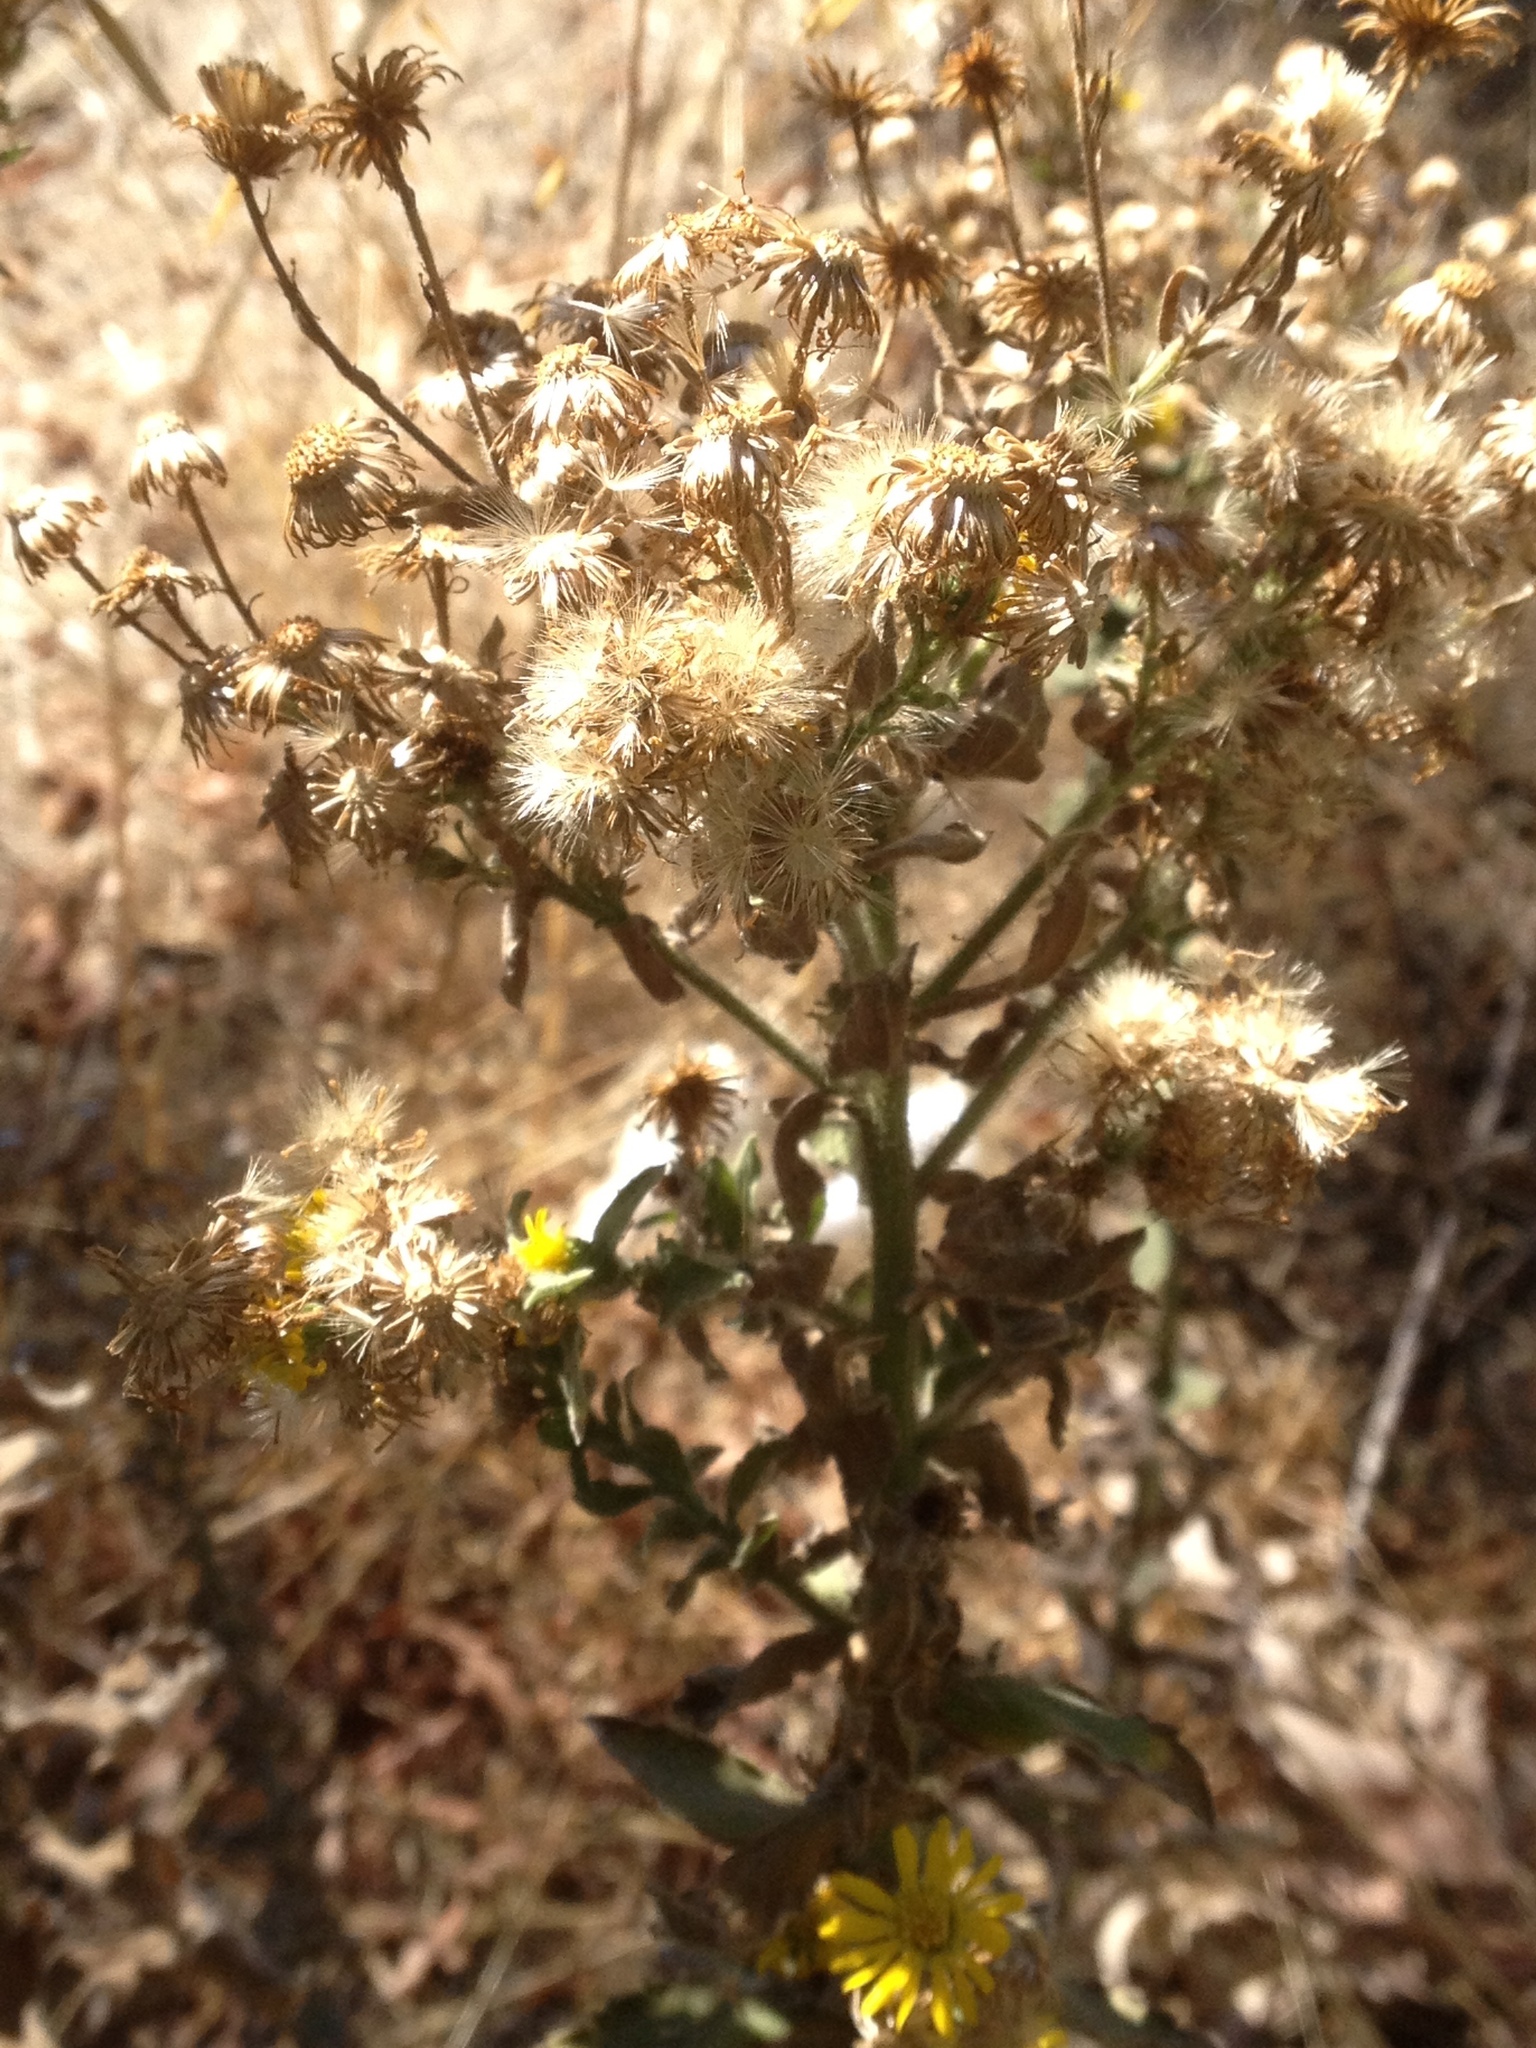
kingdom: Plantae
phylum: Tracheophyta
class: Magnoliopsida
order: Asterales
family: Asteraceae
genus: Heterotheca
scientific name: Heterotheca grandiflora
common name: Telegraphweed
